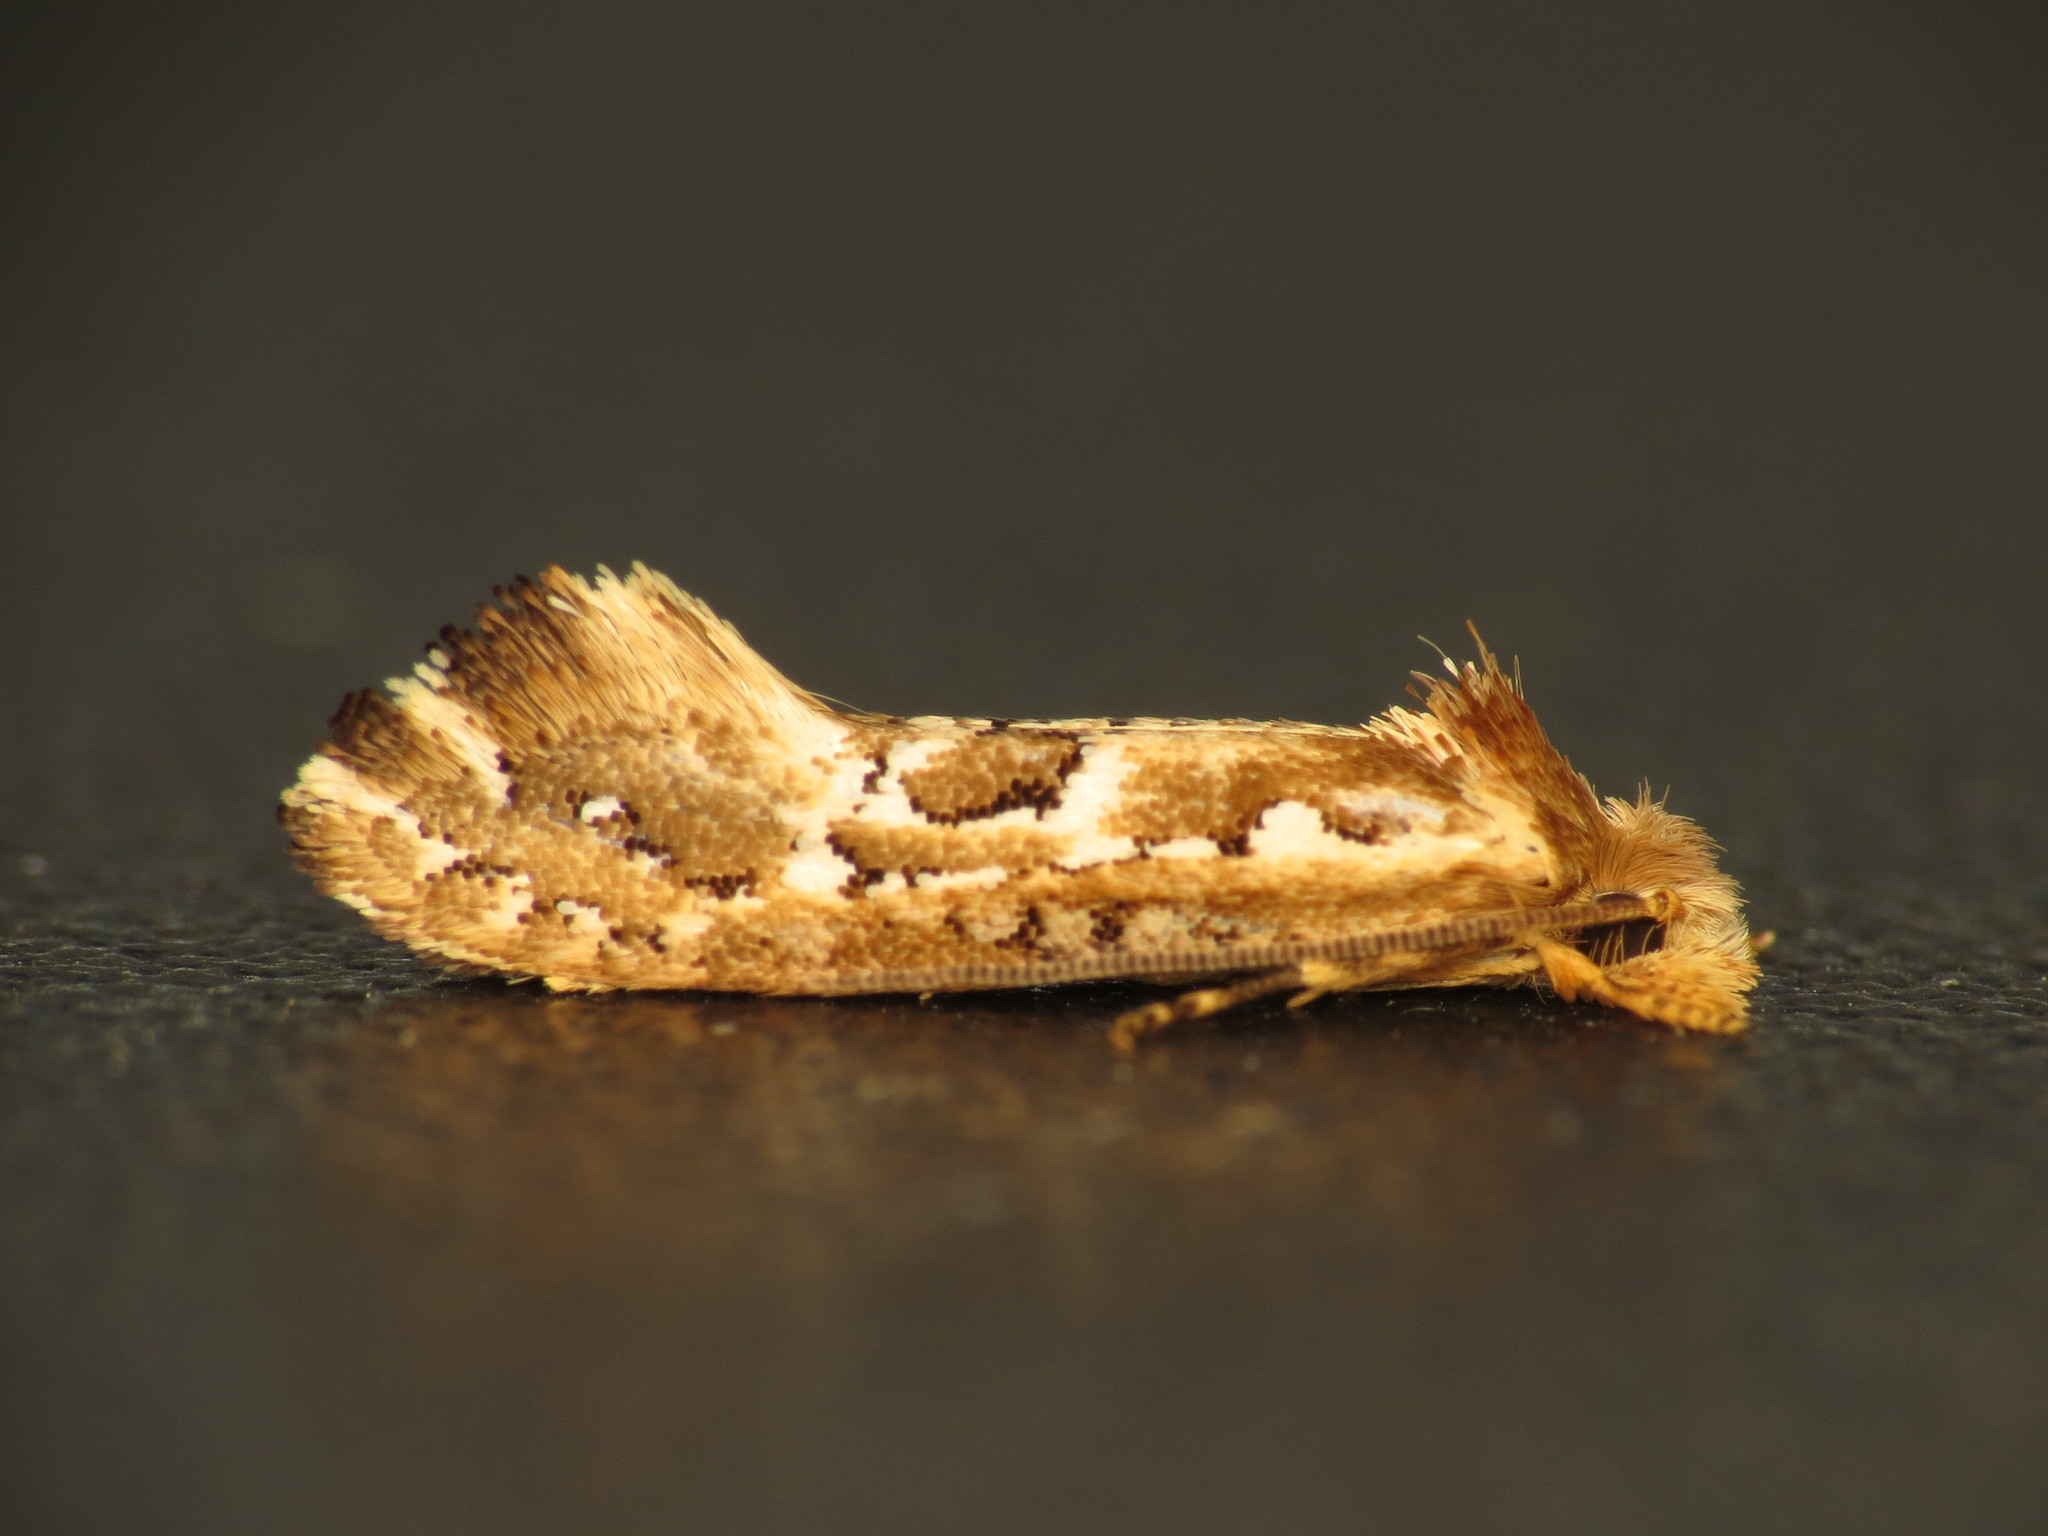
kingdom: Animalia
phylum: Arthropoda
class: Insecta
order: Lepidoptera
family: Tineidae
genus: Moerarchis
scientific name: Moerarchis inconcisella
